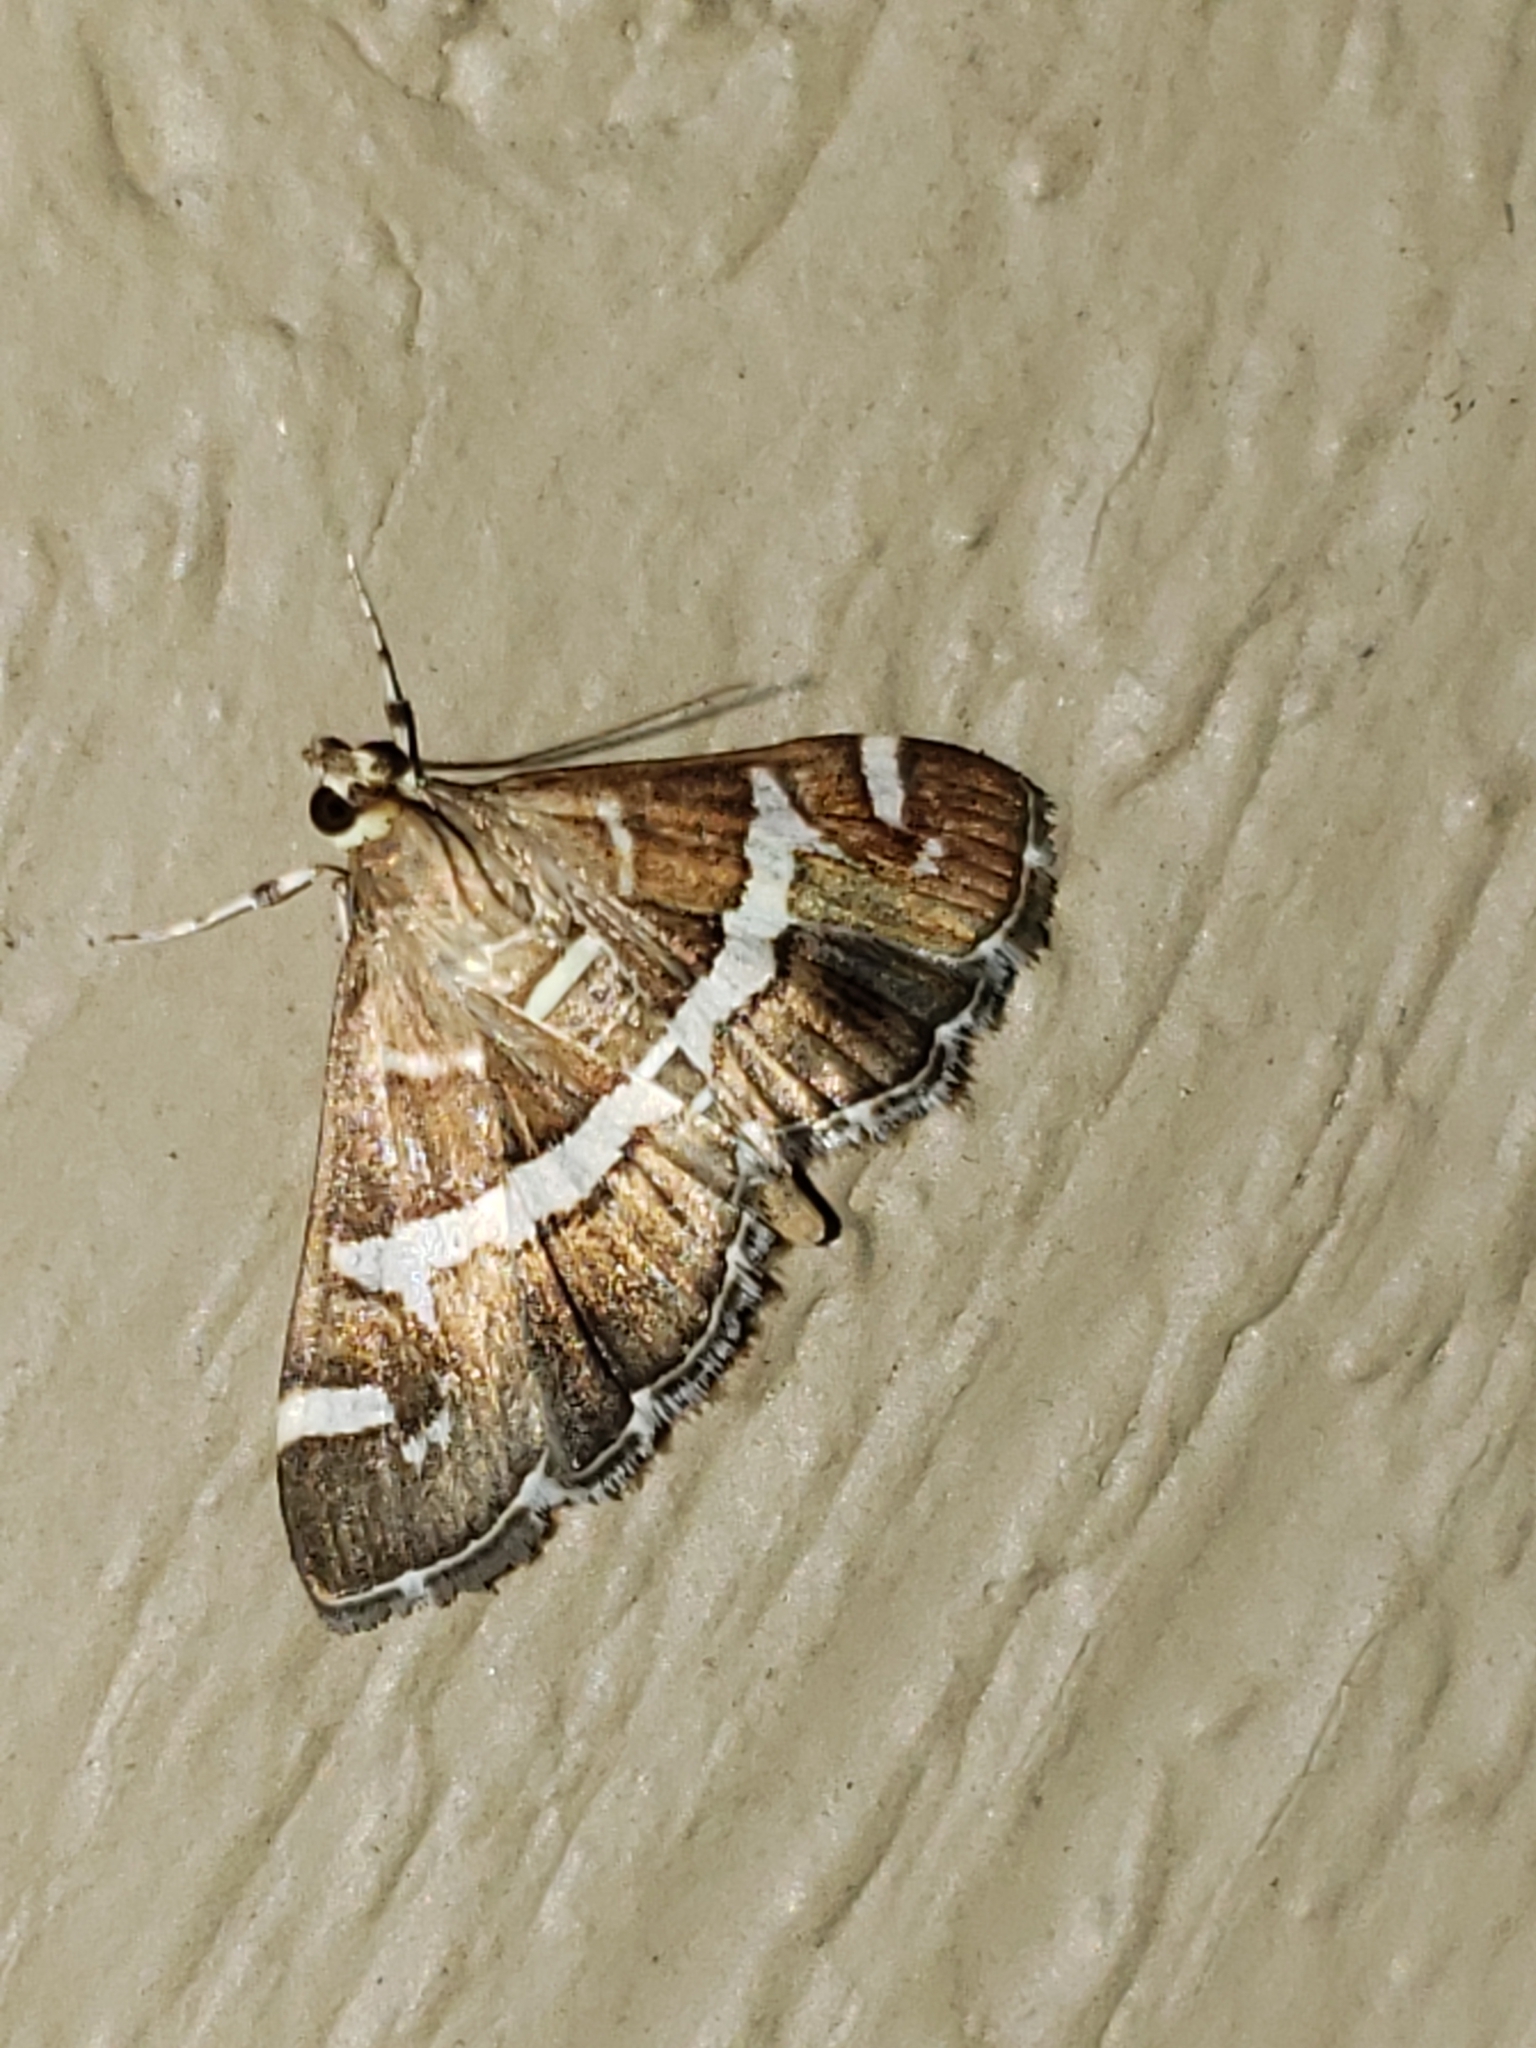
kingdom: Animalia
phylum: Arthropoda
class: Insecta
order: Lepidoptera
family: Crambidae
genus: Spoladea
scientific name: Spoladea recurvalis
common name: Beet webworm moth
